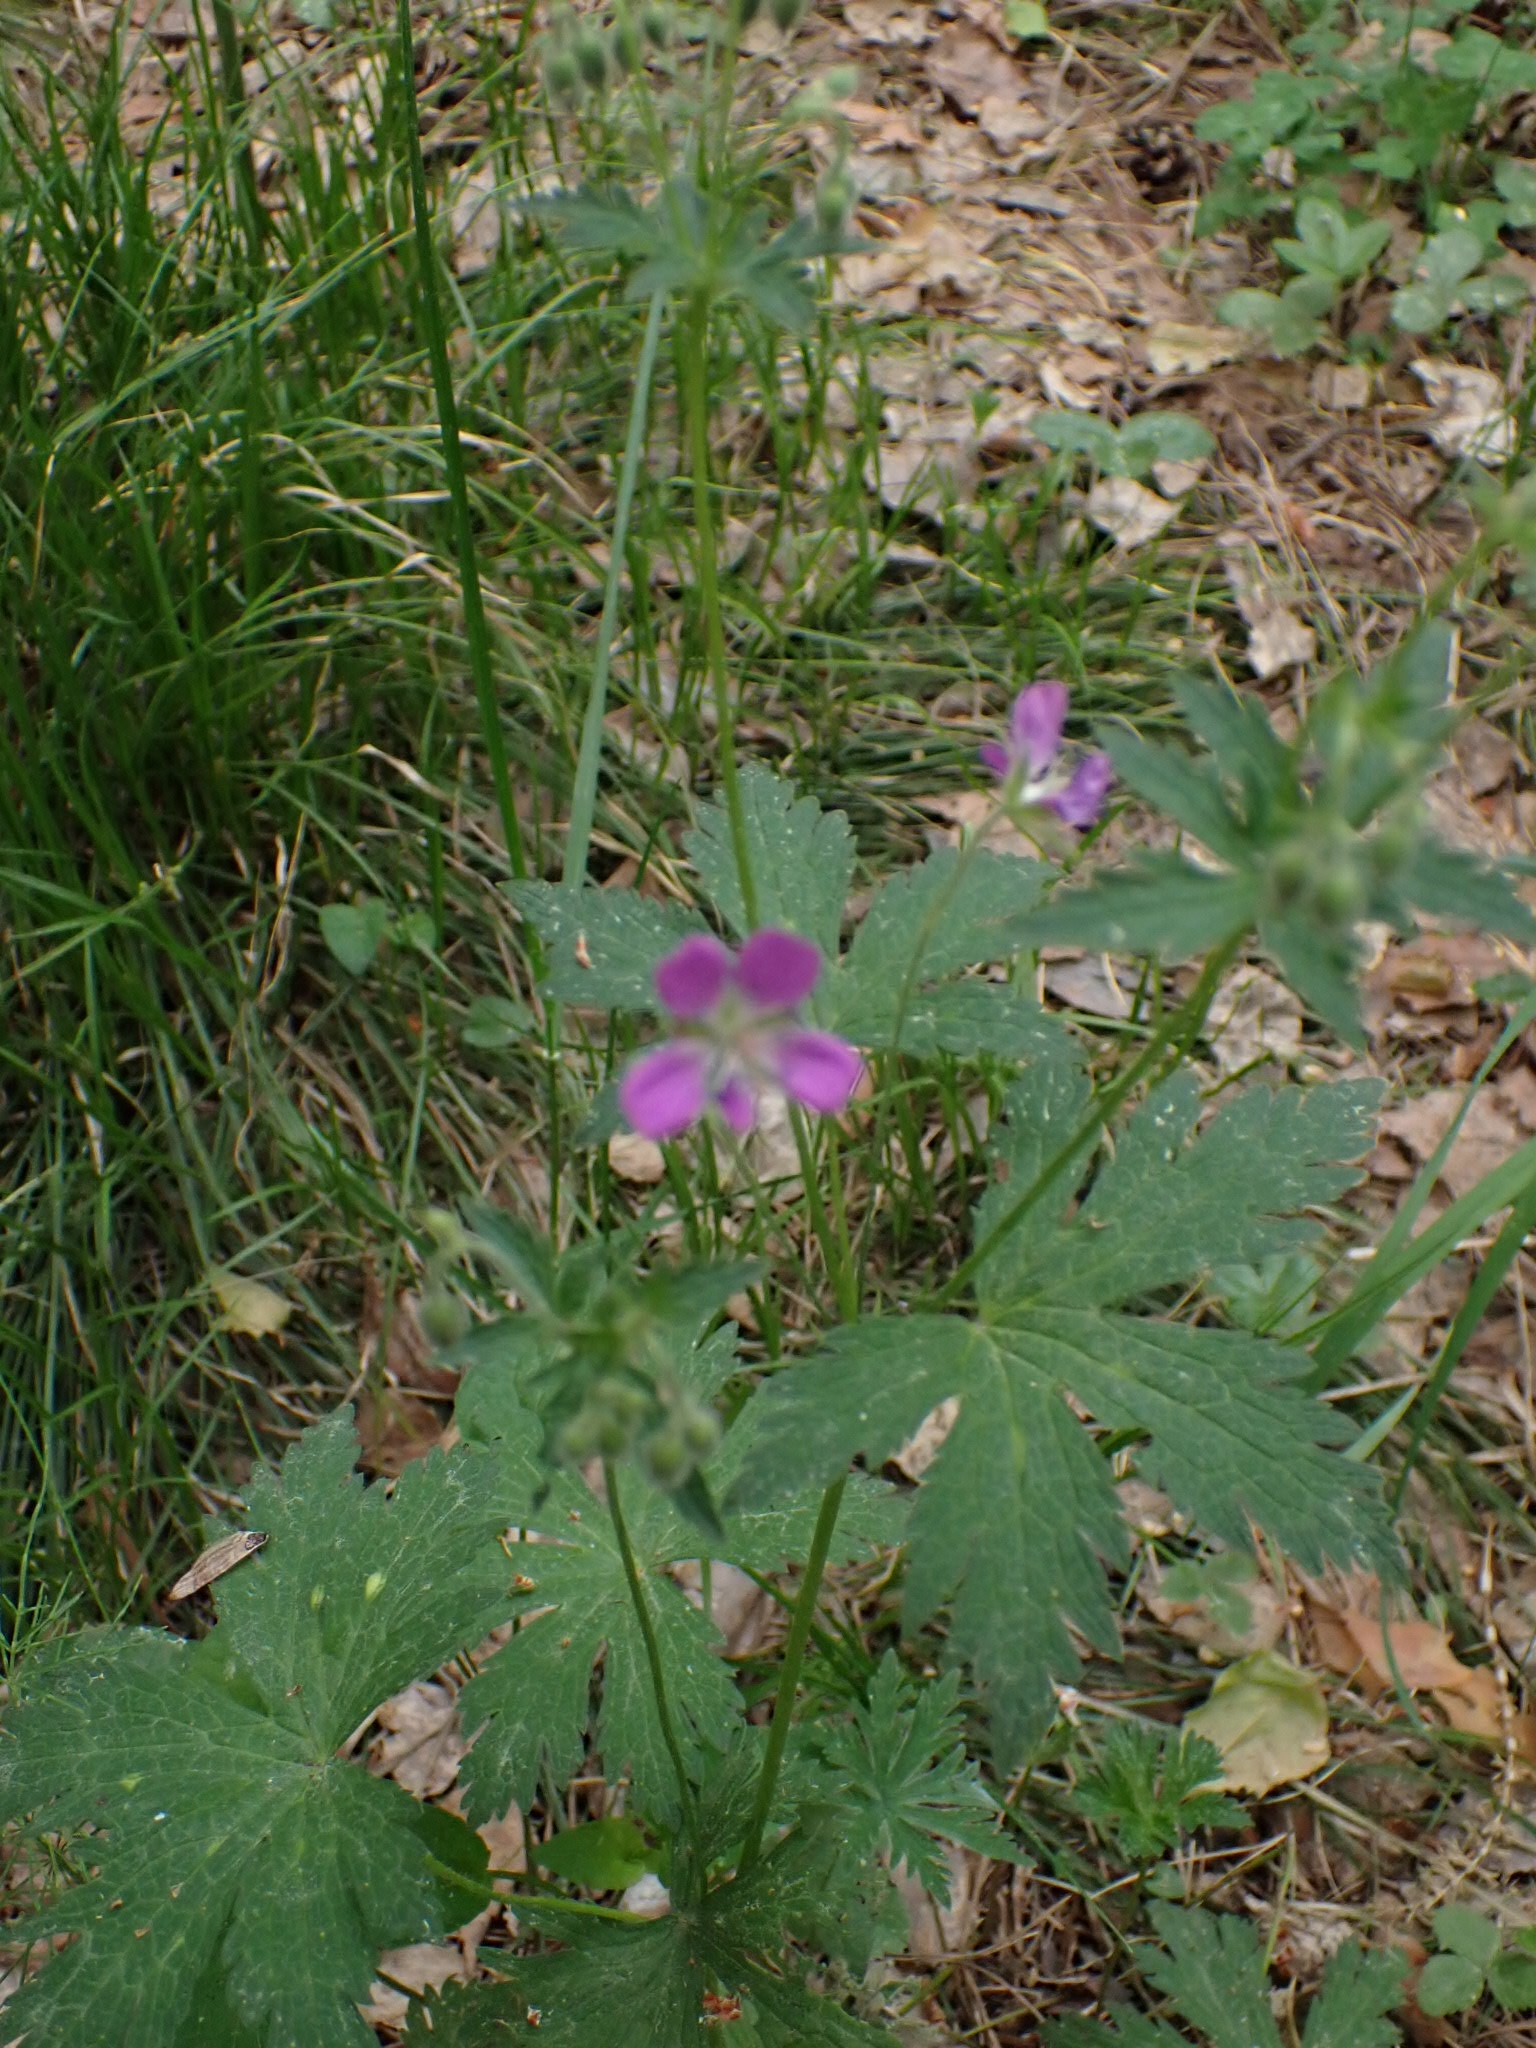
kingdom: Plantae
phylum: Tracheophyta
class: Magnoliopsida
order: Geraniales
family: Geraniaceae
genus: Geranium
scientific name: Geranium sylvaticum
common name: Wood crane's-bill
